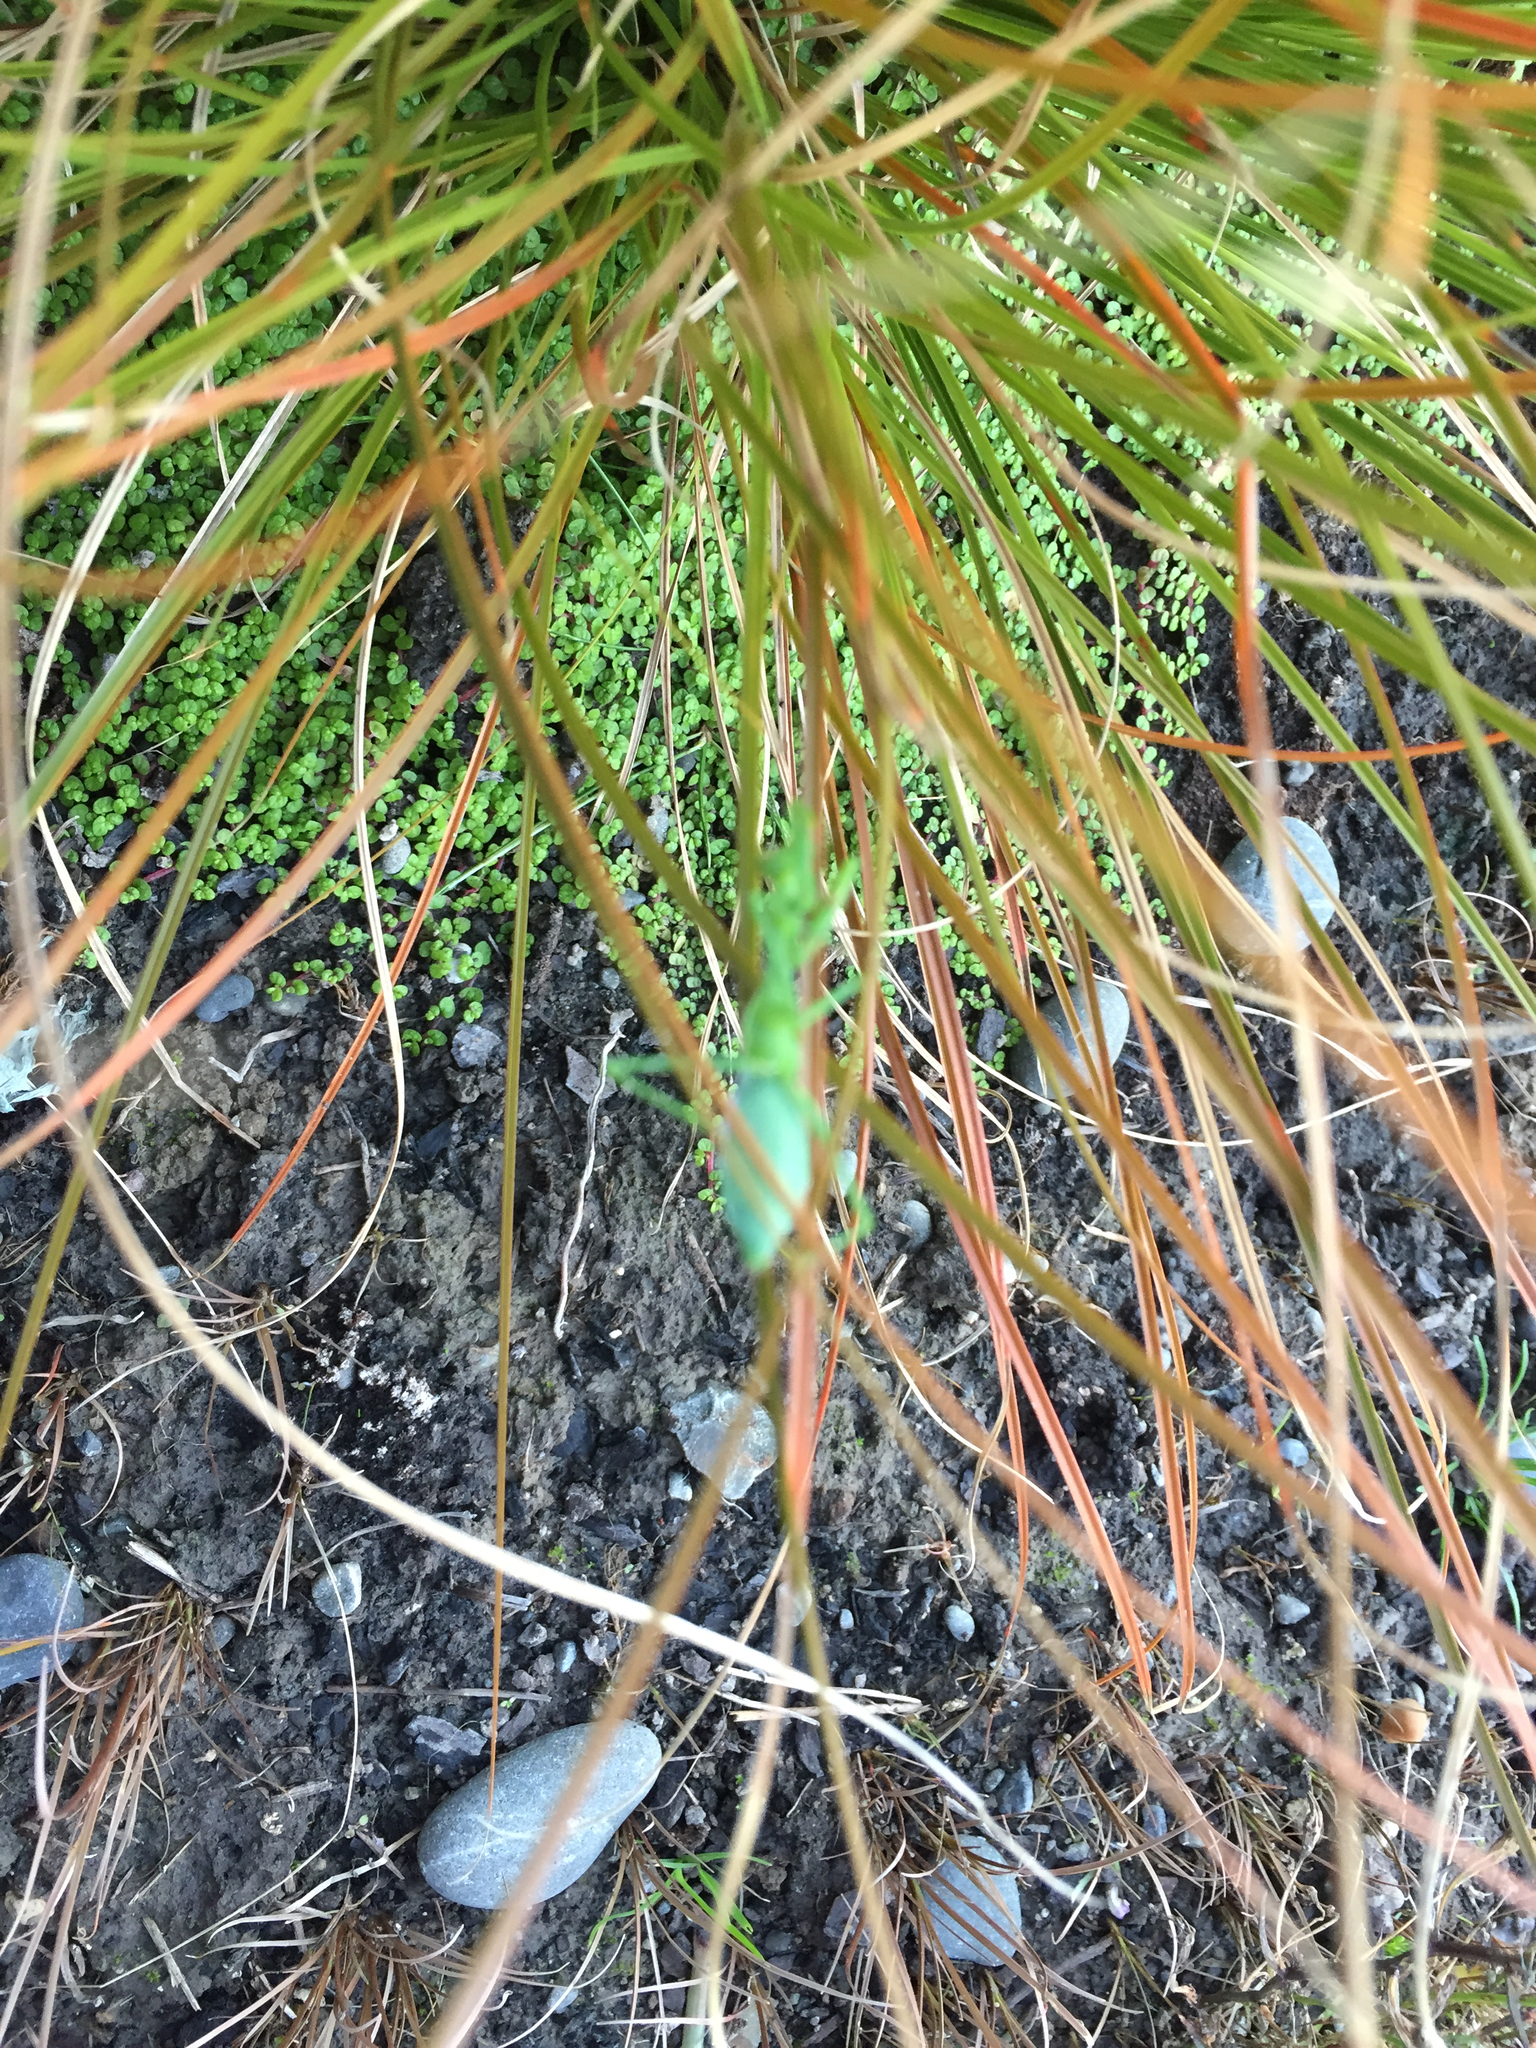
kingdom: Animalia
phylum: Arthropoda
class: Insecta
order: Mantodea
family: Miomantidae
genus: Miomantis
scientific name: Miomantis caffra
